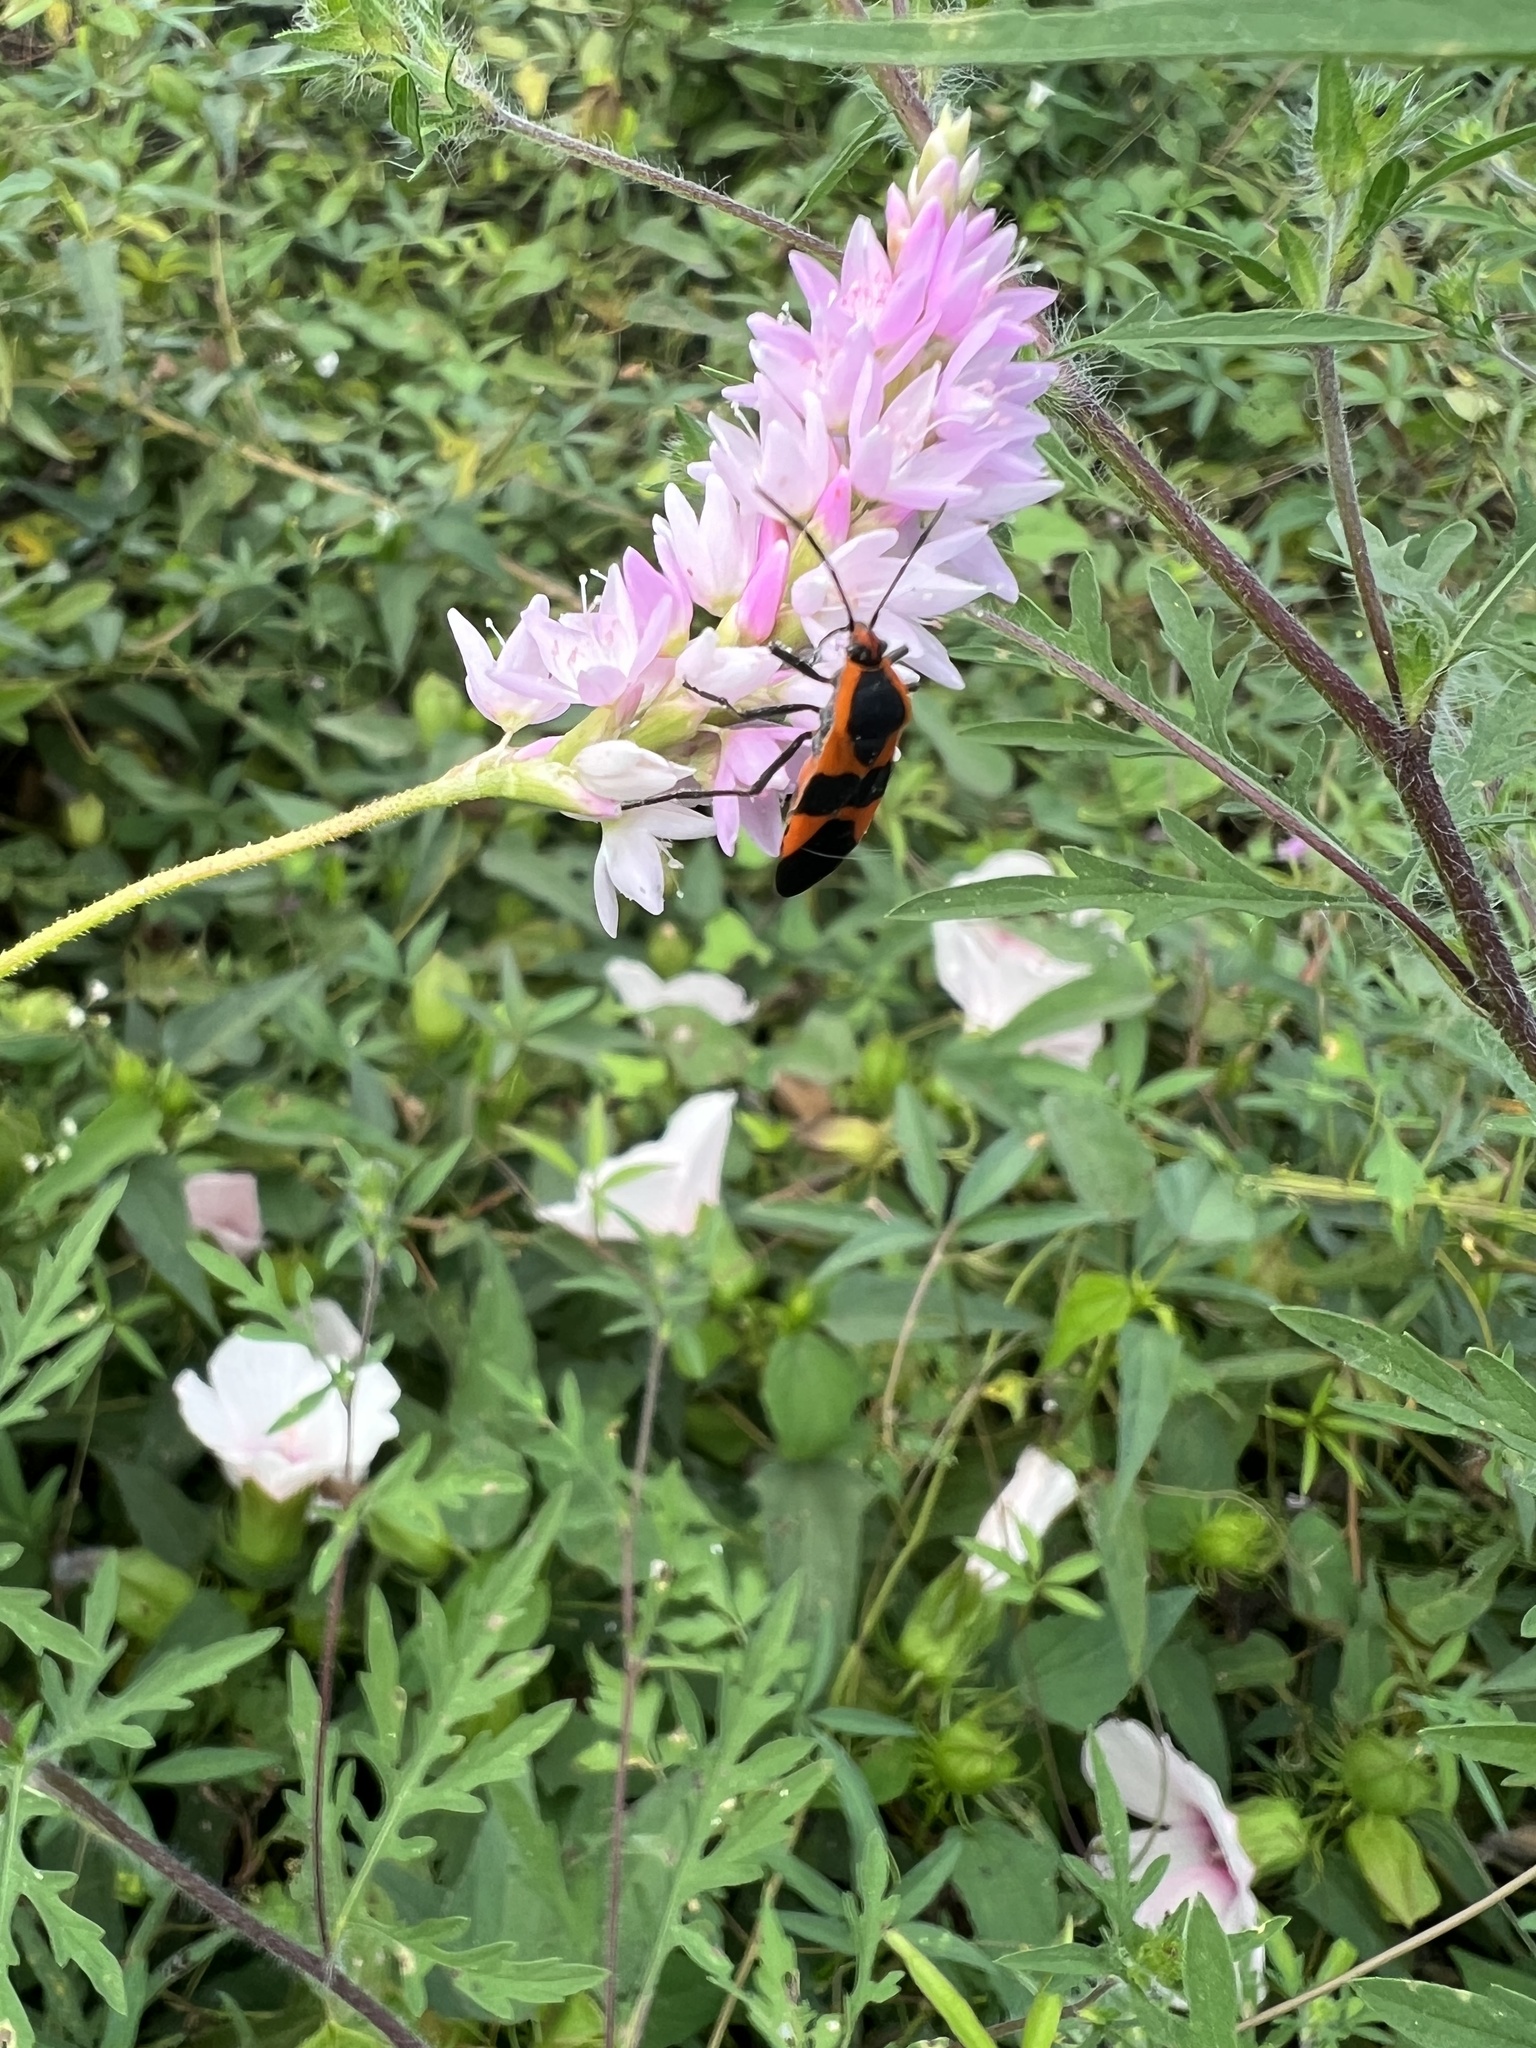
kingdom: Animalia
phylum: Arthropoda
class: Insecta
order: Hemiptera
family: Lygaeidae
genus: Oncopeltus
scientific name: Oncopeltus fasciatus
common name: Large milkweed bug
